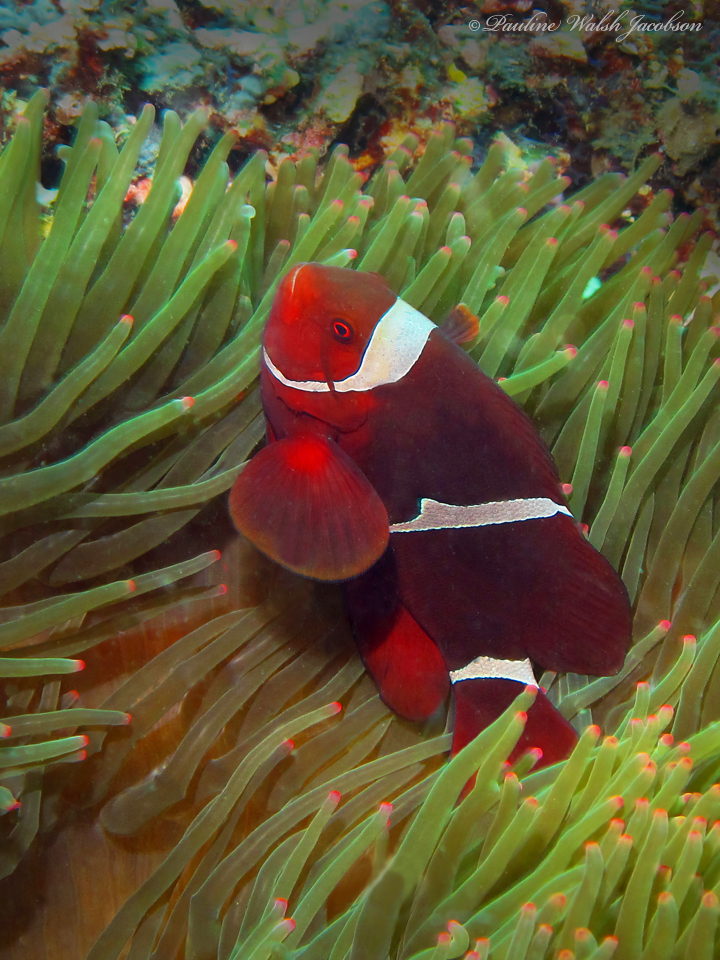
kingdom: Animalia
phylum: Chordata
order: Perciformes
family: Pomacentridae
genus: Premnas
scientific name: Premnas biaculeatus
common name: Spinecheek anemonefish
